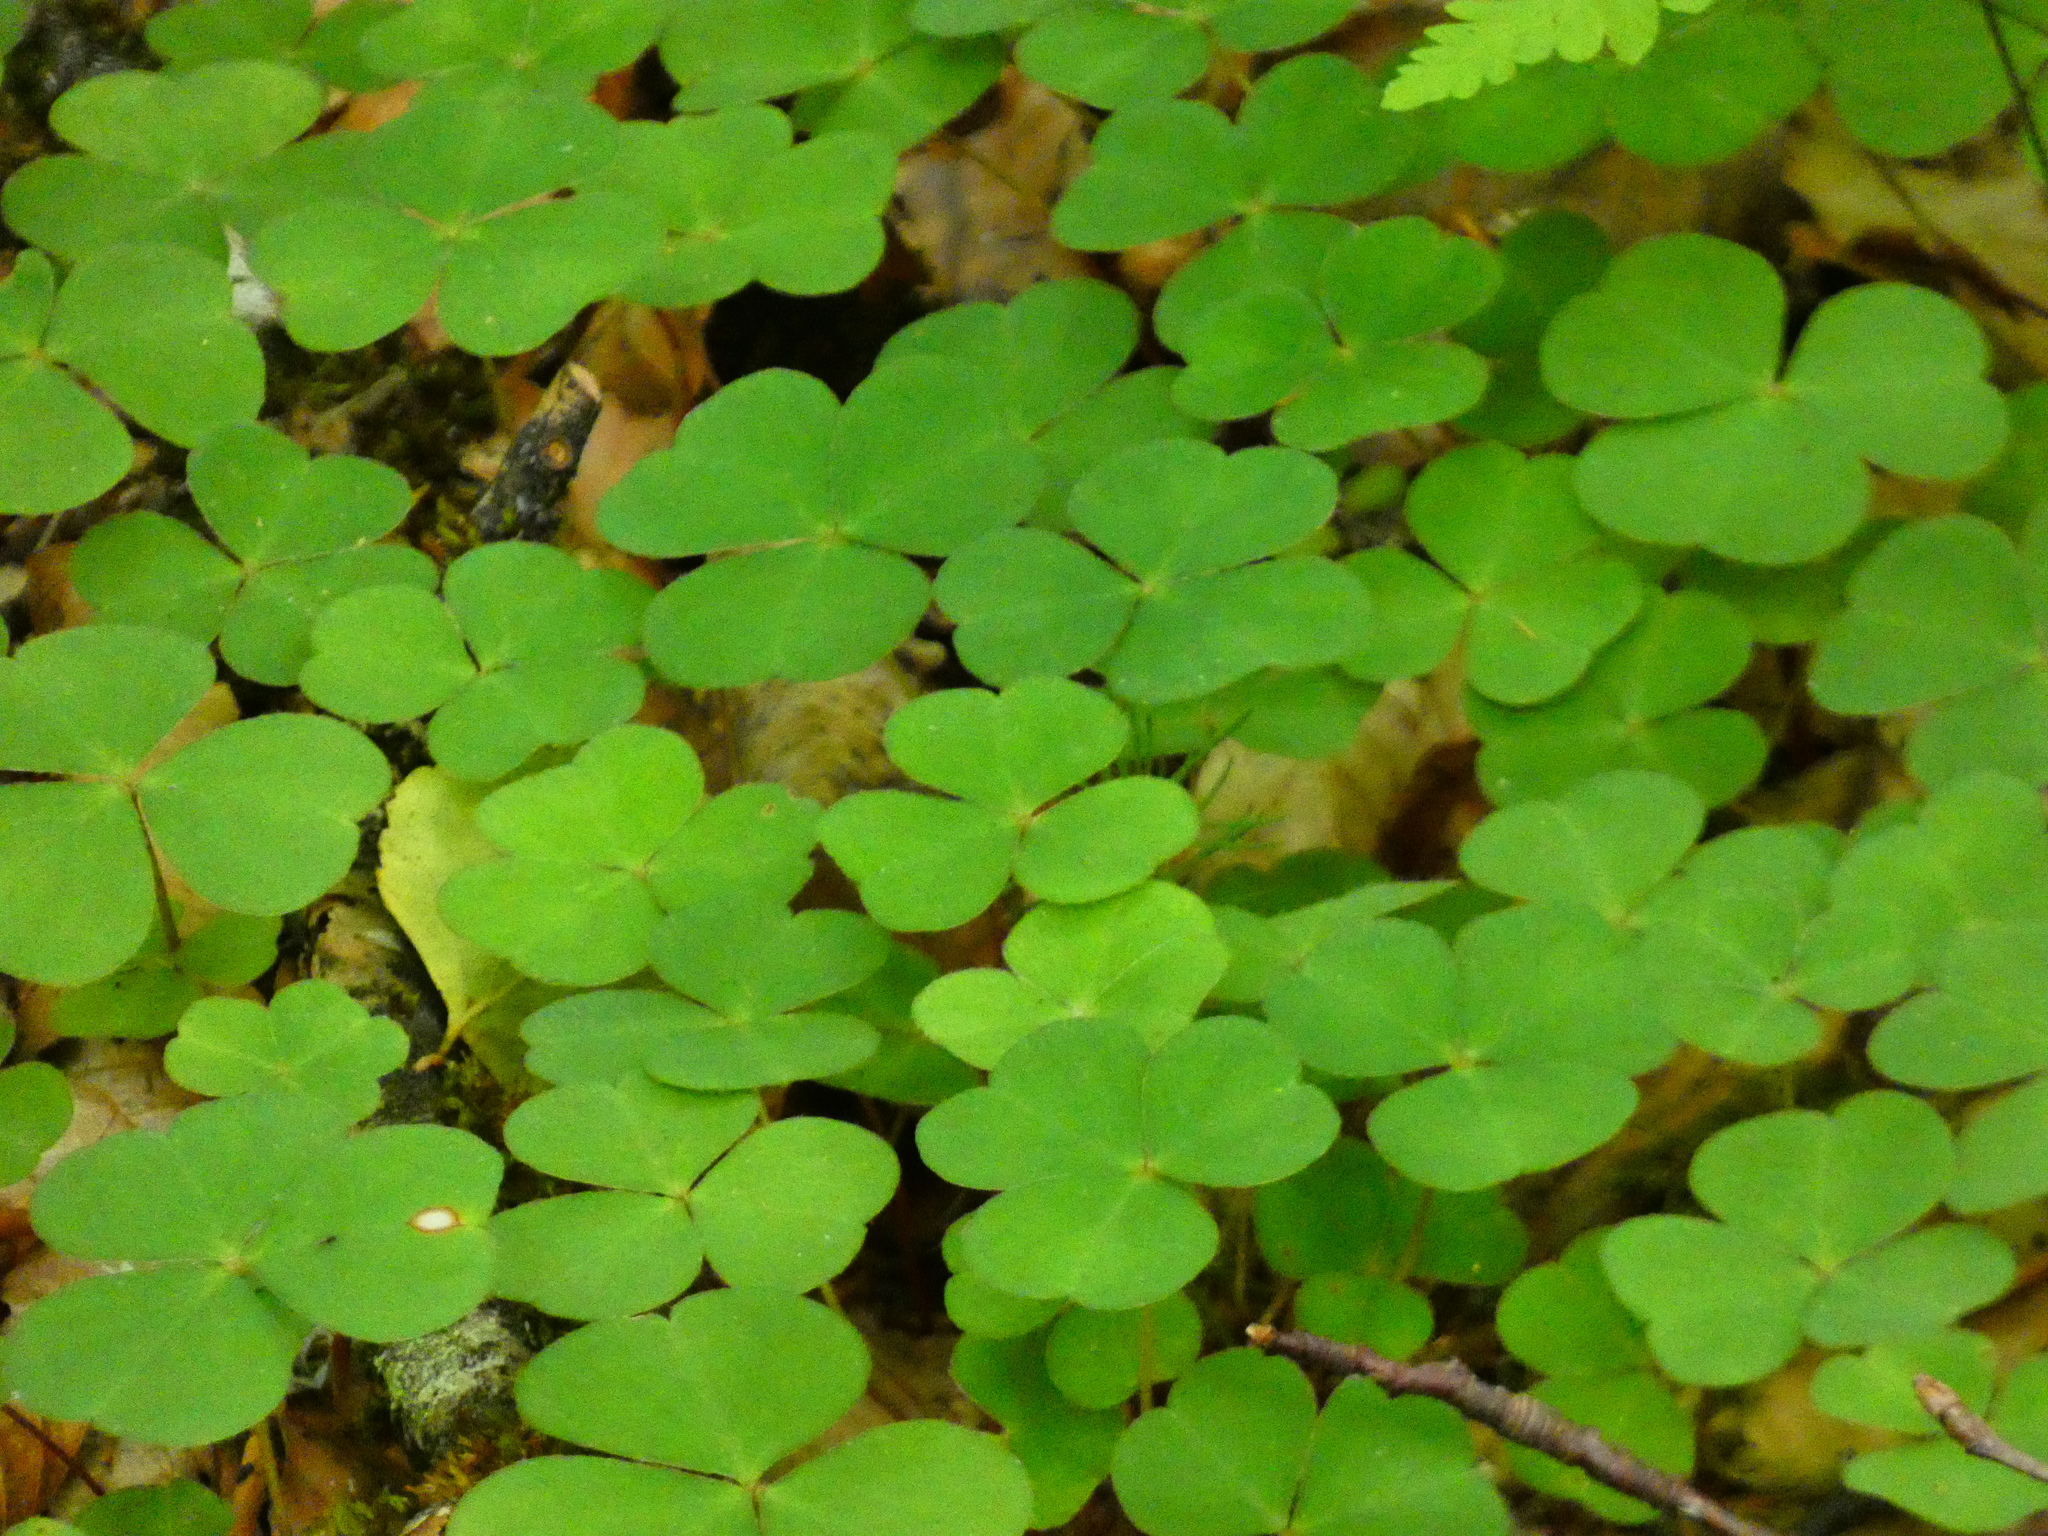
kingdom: Plantae
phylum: Tracheophyta
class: Magnoliopsida
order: Oxalidales
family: Oxalidaceae
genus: Oxalis
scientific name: Oxalis acetosella
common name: Wood-sorrel
